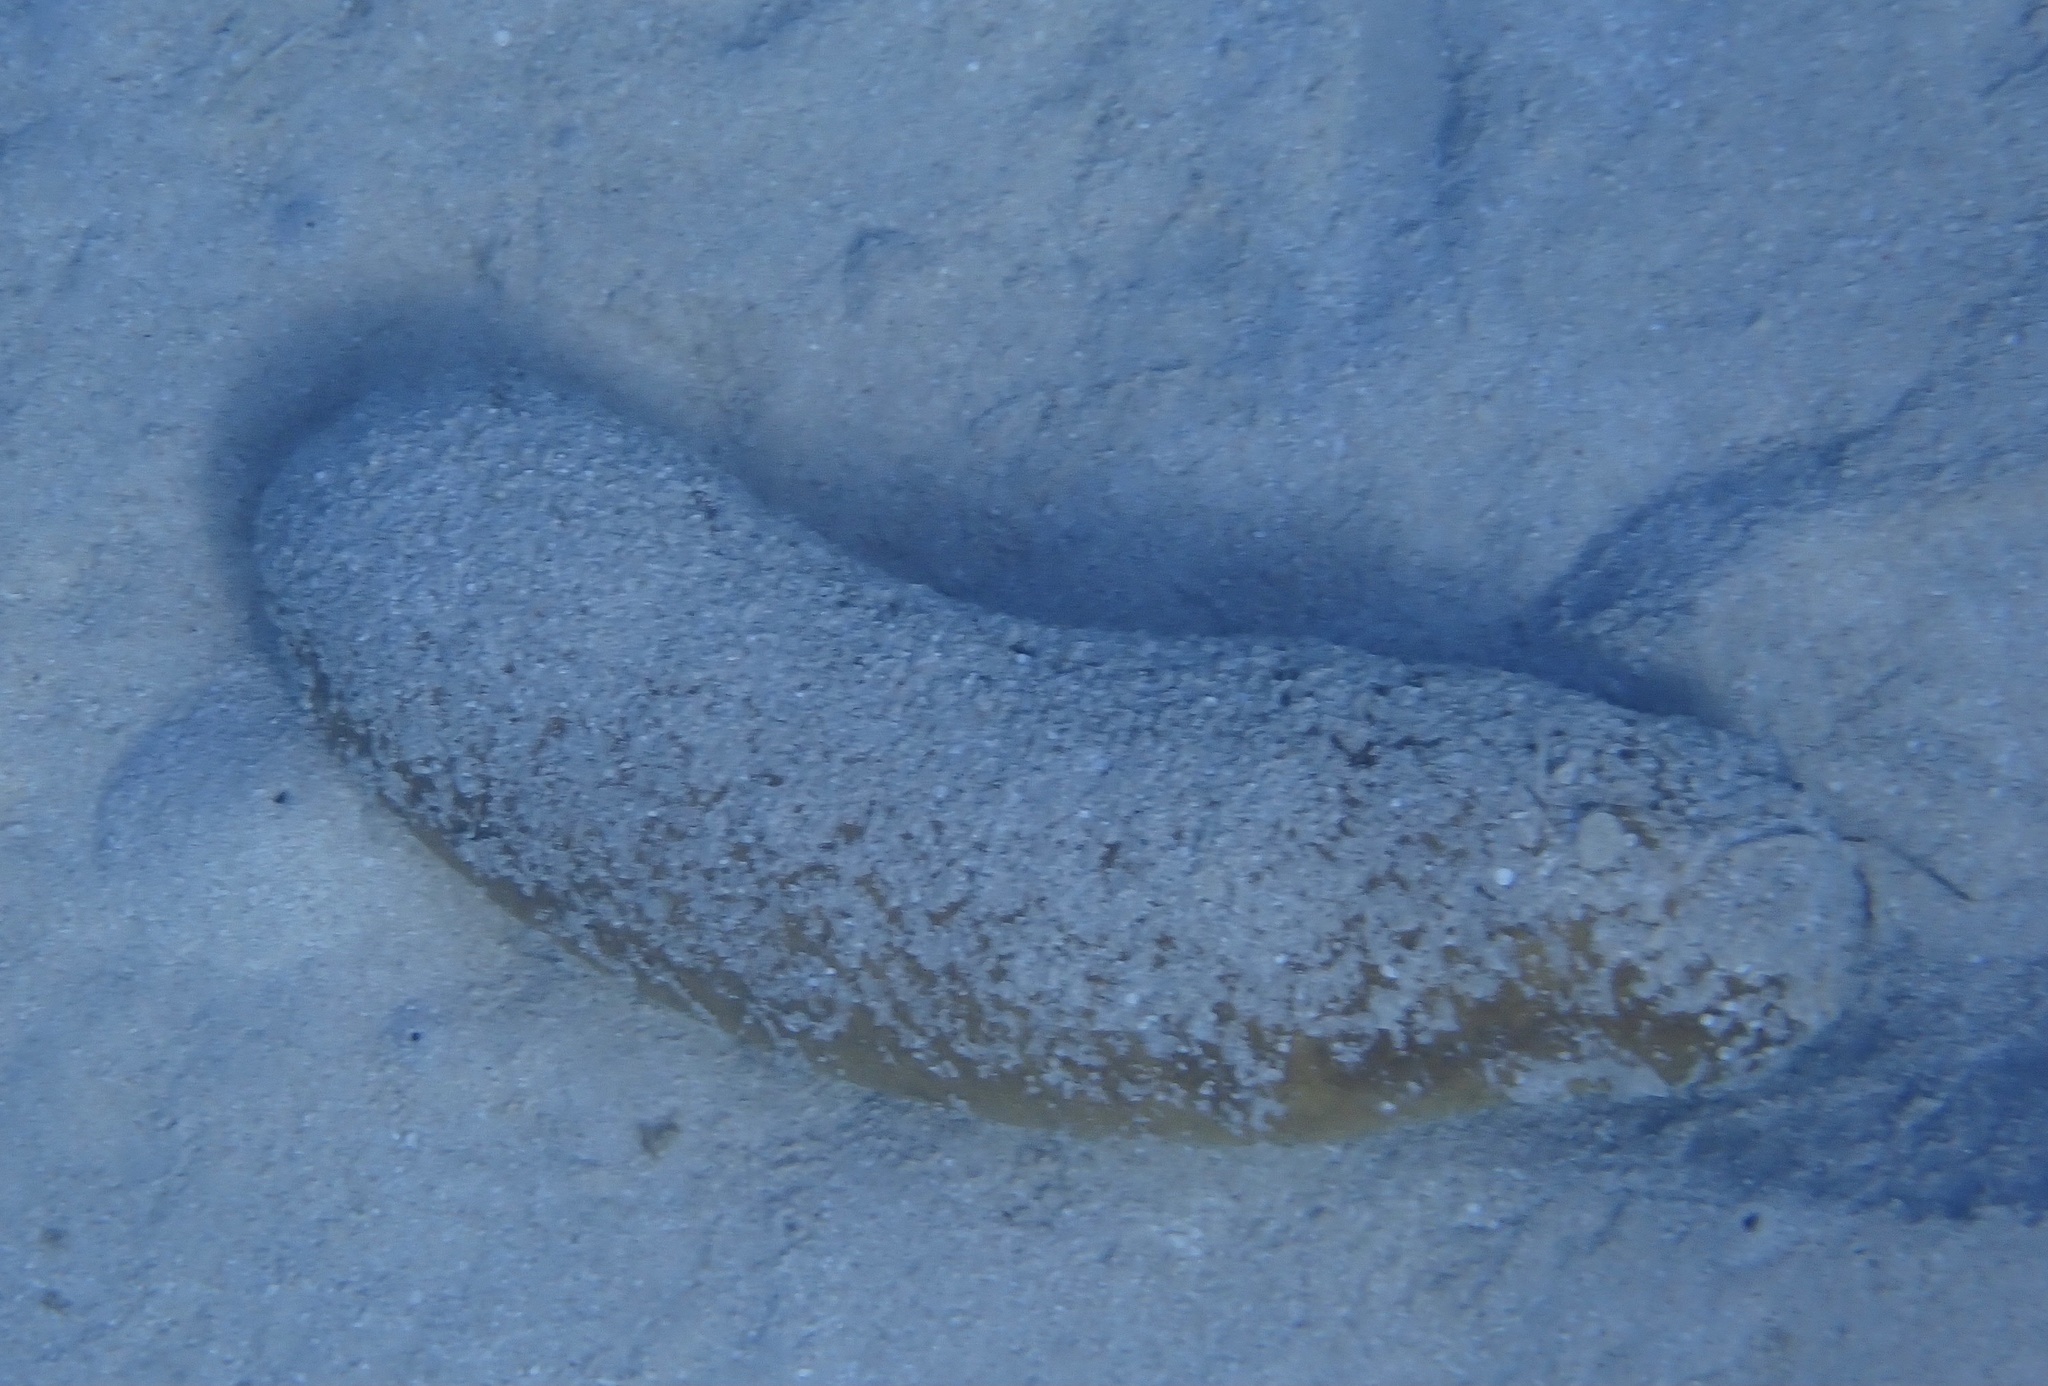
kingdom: Animalia
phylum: Echinodermata
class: Holothuroidea
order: Holothuriida
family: Holothuriidae
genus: Bohadschia
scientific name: Bohadschia vitiensis
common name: Brown sandfish
